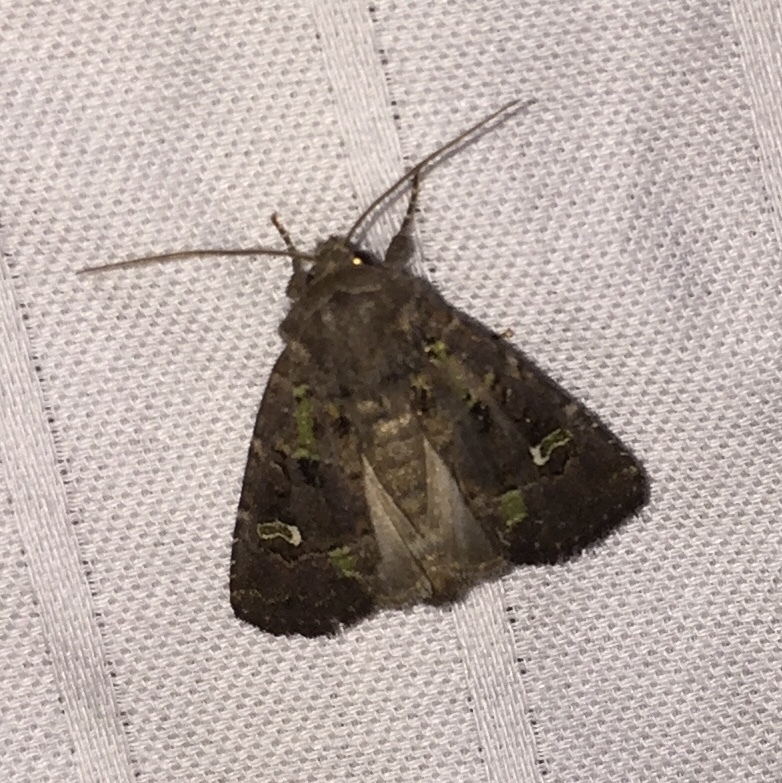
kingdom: Animalia
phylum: Arthropoda
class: Insecta
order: Lepidoptera
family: Noctuidae
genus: Lacinipolia
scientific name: Lacinipolia renigera
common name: Kidney-spotted minor
